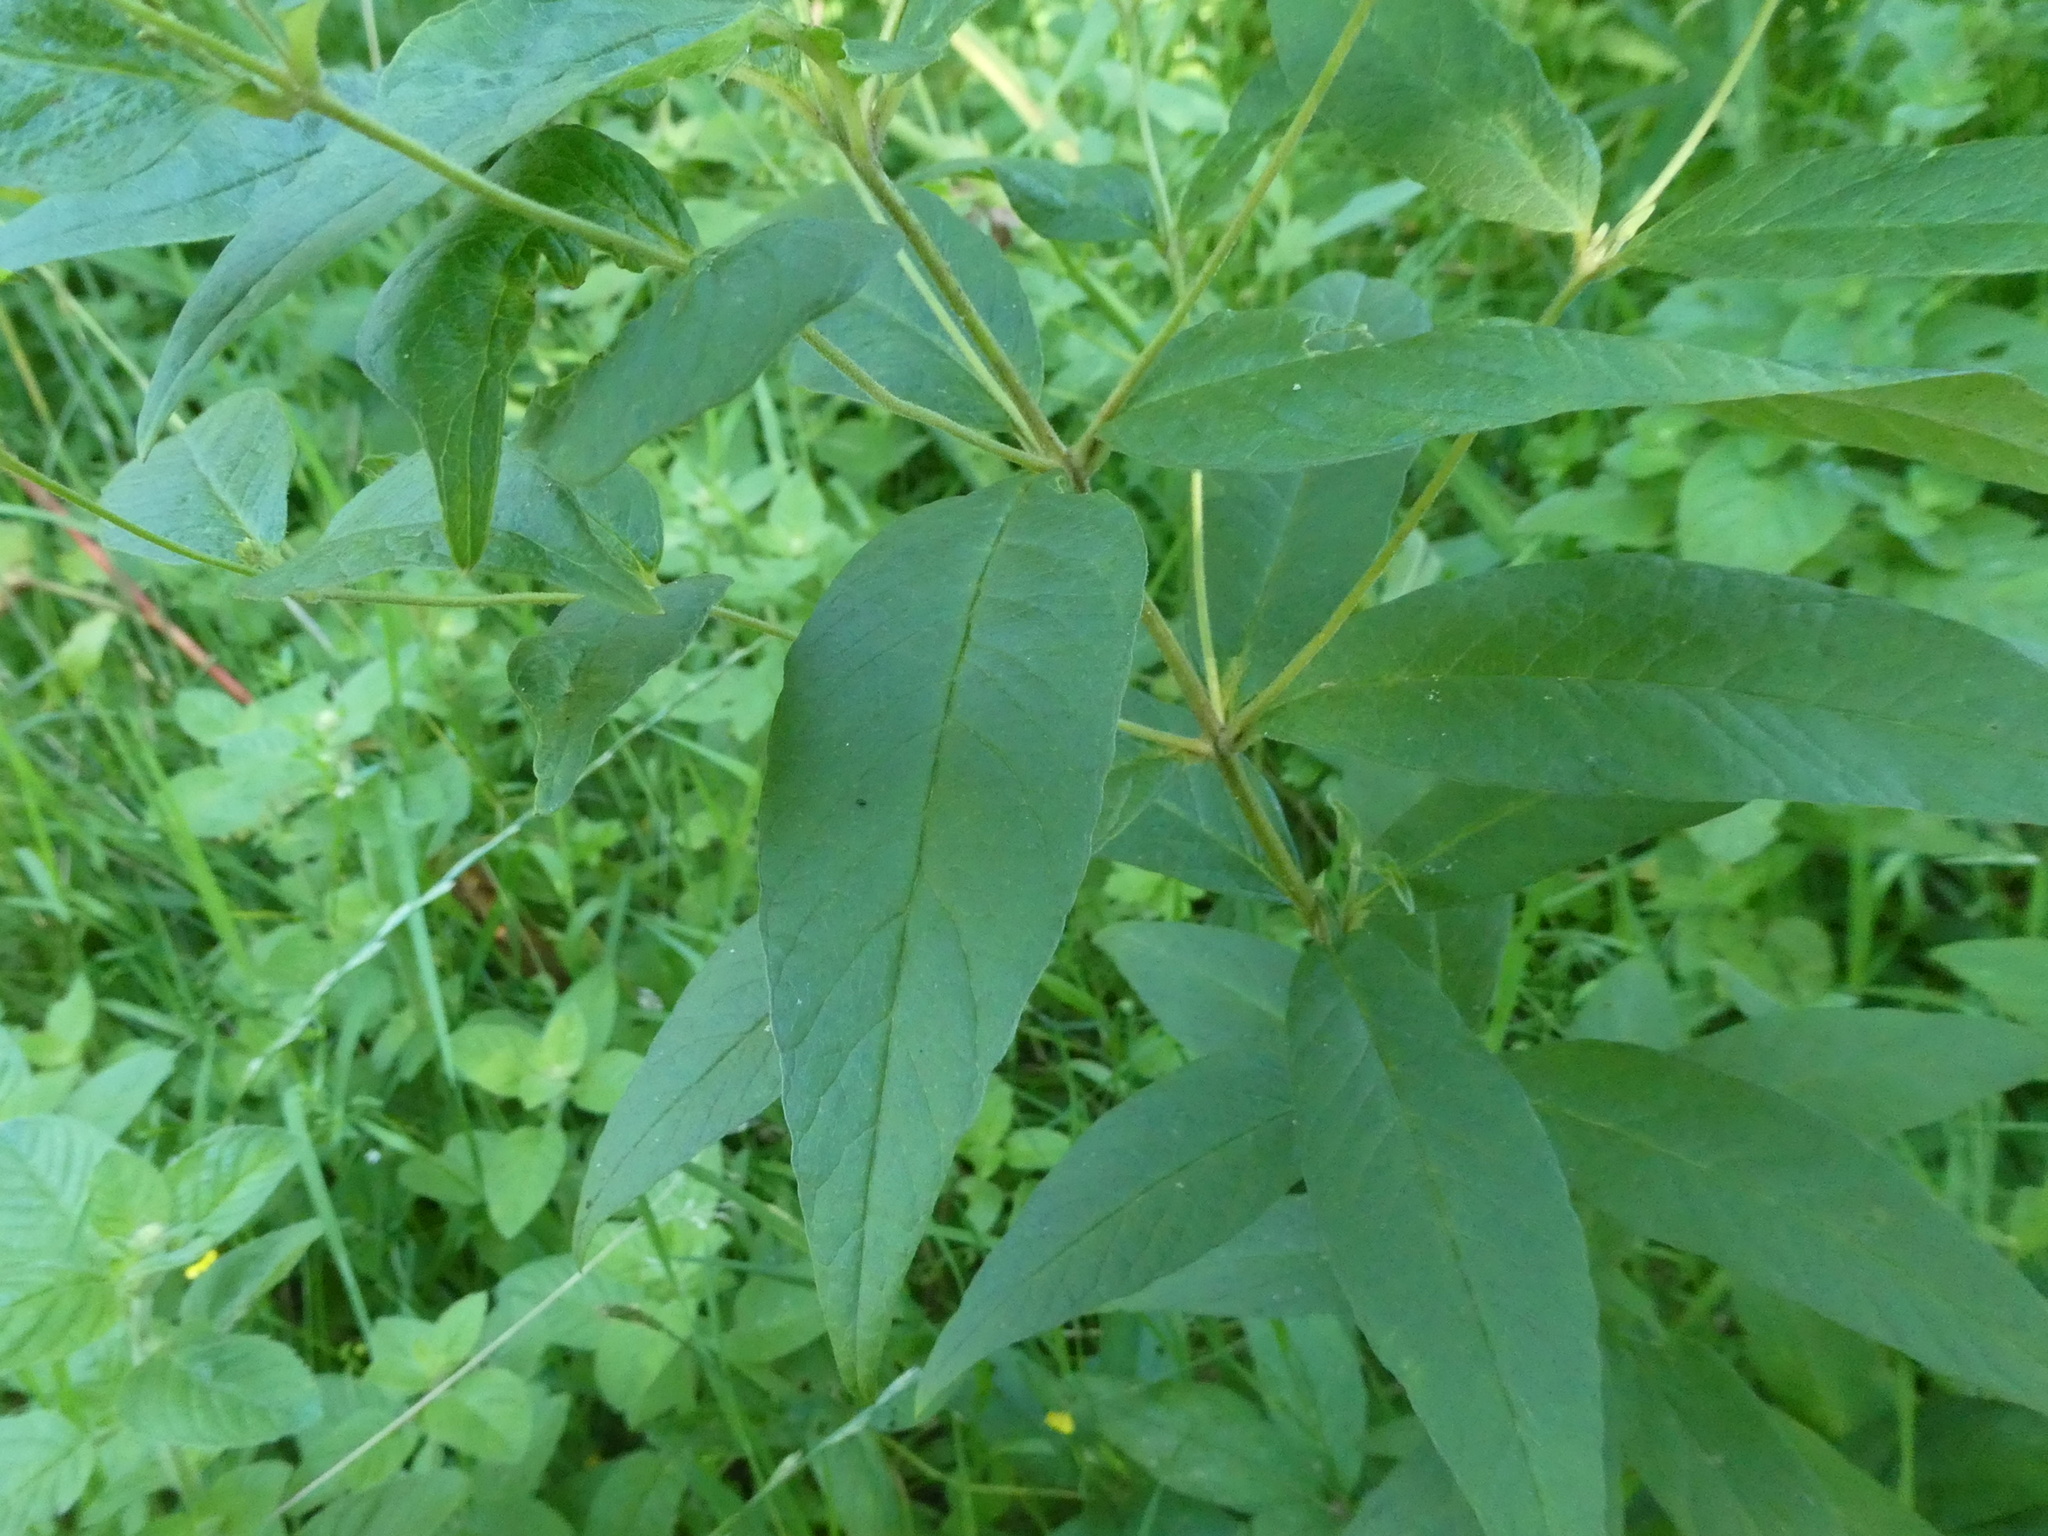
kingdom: Plantae
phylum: Tracheophyta
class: Magnoliopsida
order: Ericales
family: Primulaceae
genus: Lysimachia
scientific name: Lysimachia vulgaris
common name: Yellow loosestrife
